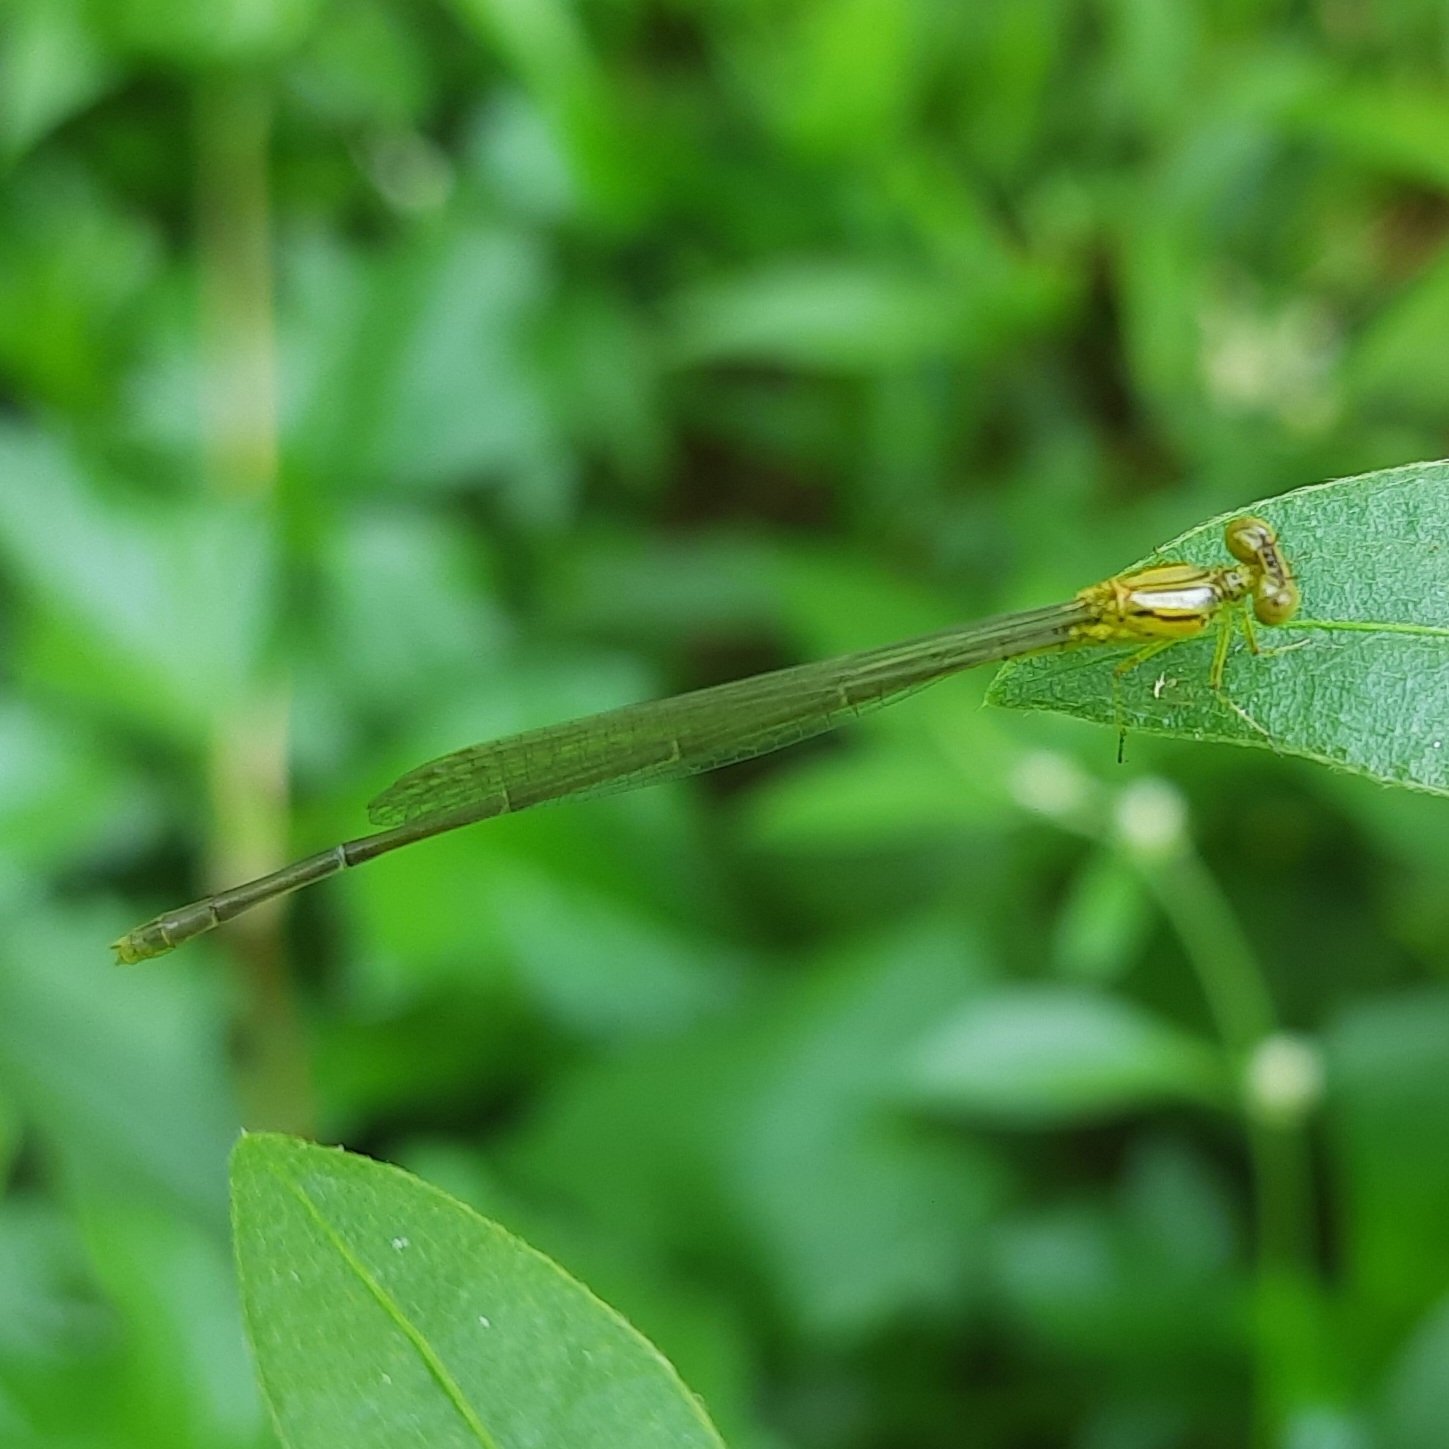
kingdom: Animalia
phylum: Arthropoda
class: Insecta
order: Odonata
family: Coenagrionidae
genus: Pseudagrion
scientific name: Pseudagrion decorum
